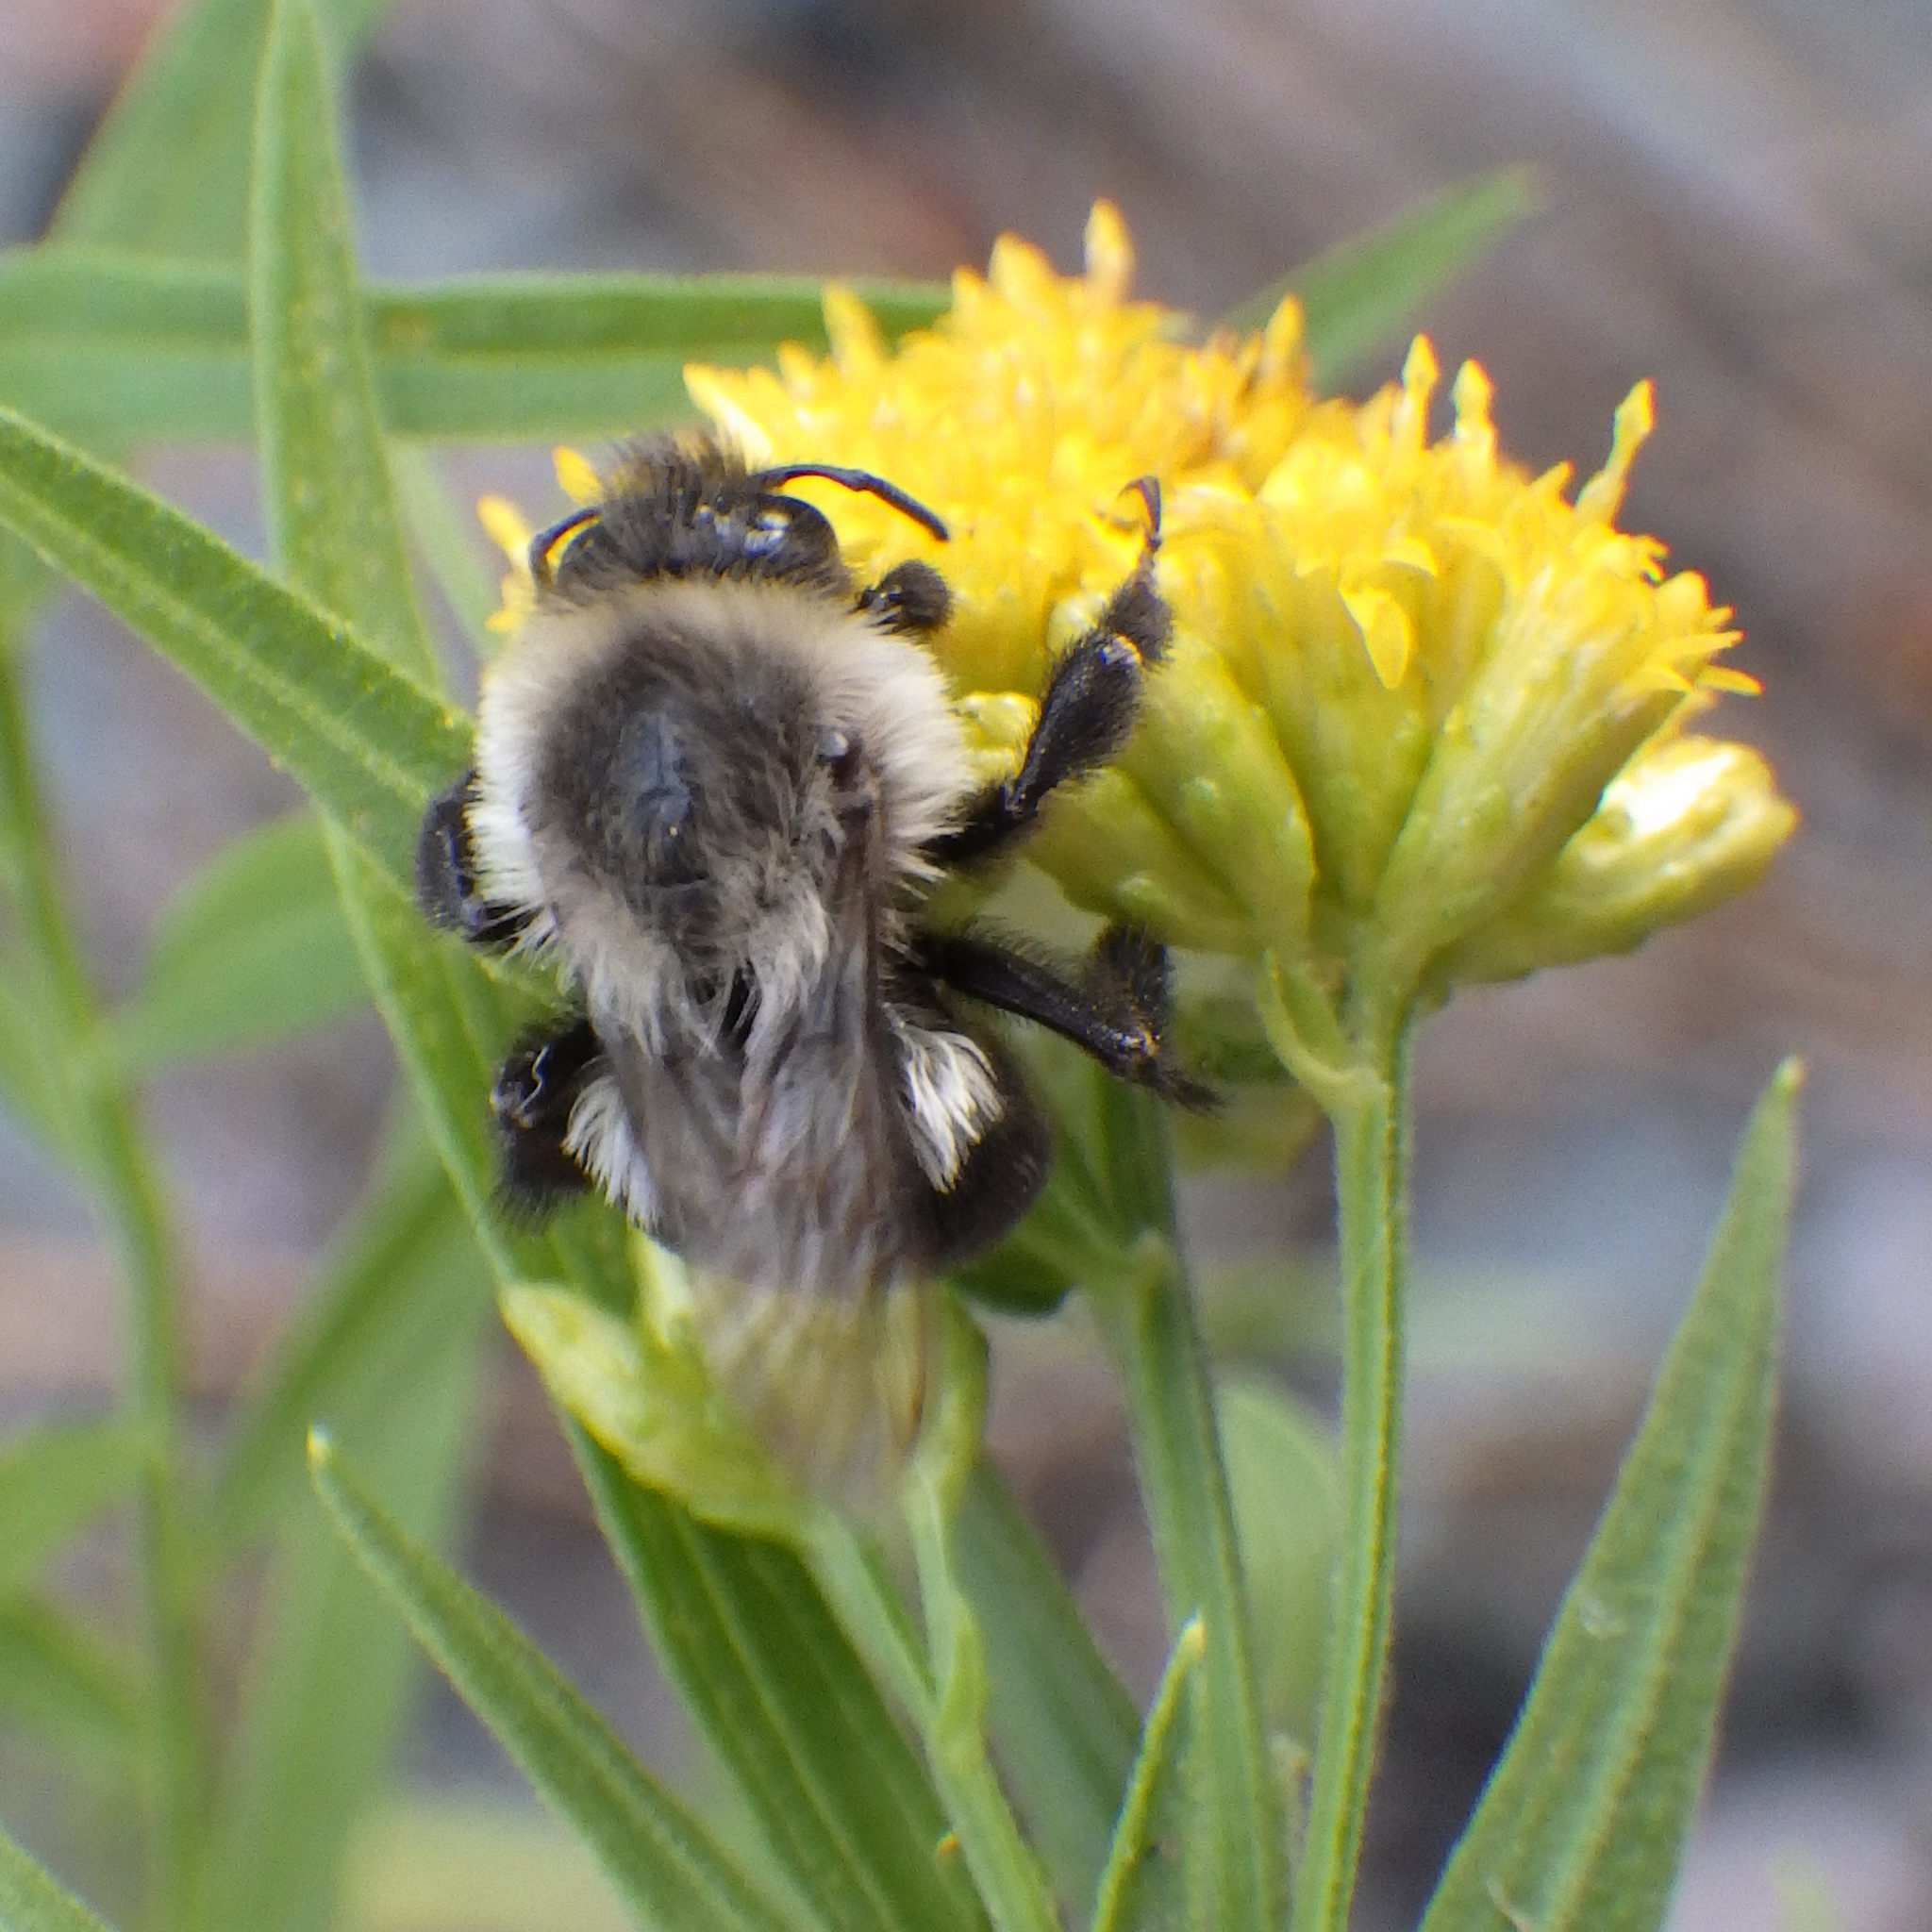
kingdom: Animalia
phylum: Arthropoda
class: Insecta
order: Hymenoptera
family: Apidae
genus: Bombus
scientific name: Bombus impatiens
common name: Common eastern bumble bee
